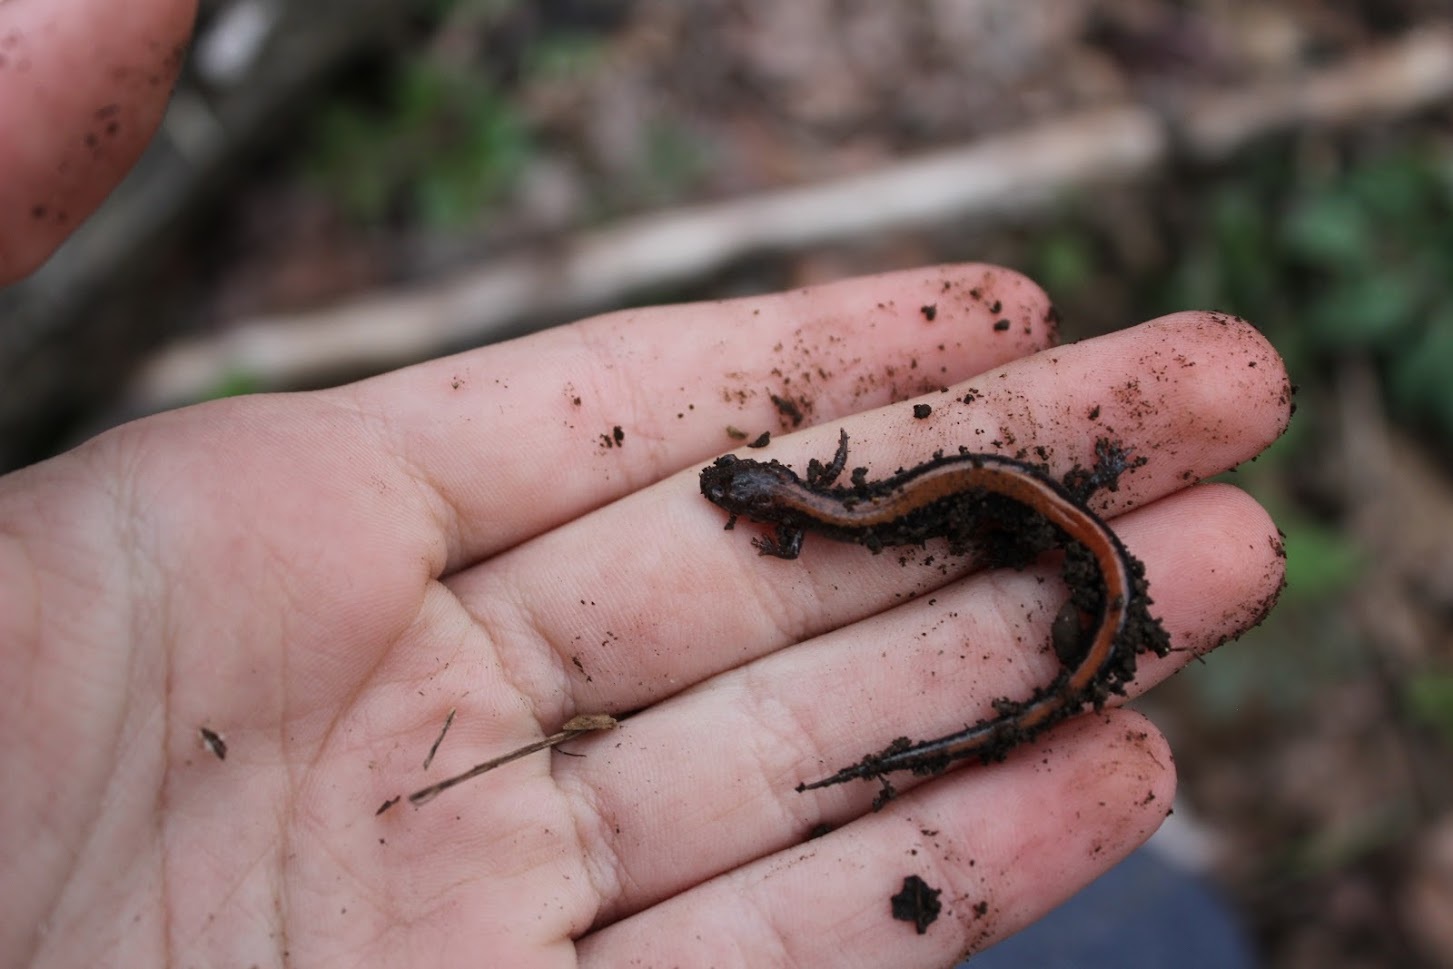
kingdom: Animalia
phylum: Chordata
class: Amphibia
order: Caudata
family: Plethodontidae
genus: Plethodon
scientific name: Plethodon cinereus
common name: Redback salamander
